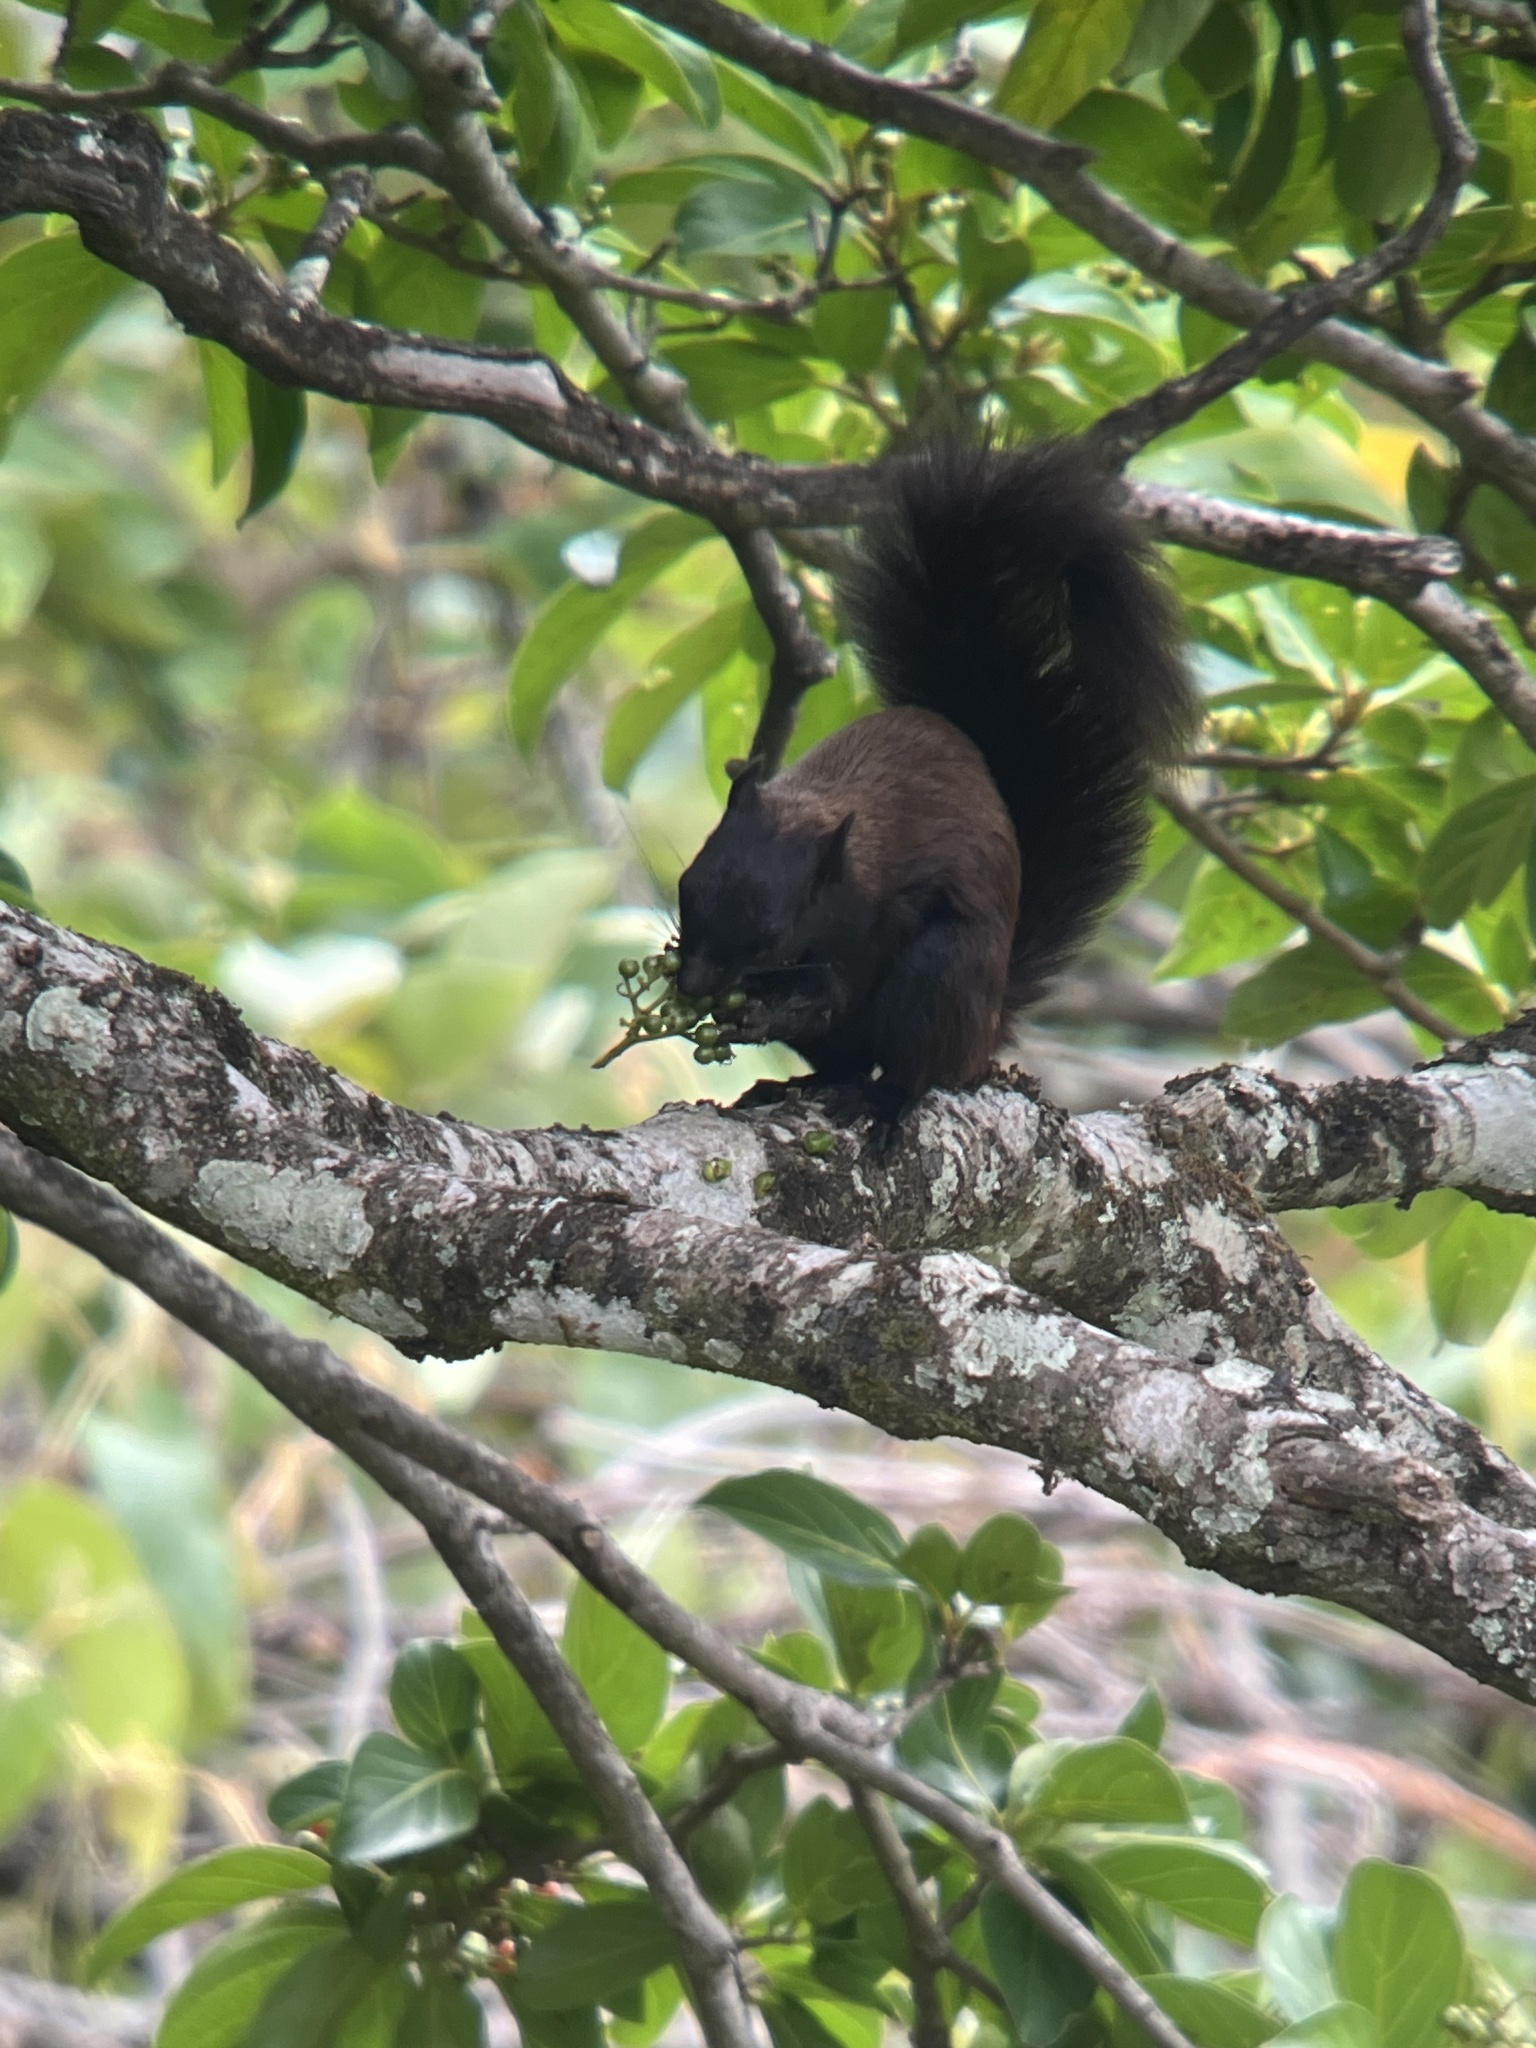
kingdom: Animalia
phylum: Chordata
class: Mammalia
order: Rodentia
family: Sciuridae
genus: Sciurus
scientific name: Sciurus variegatoides
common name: Variegated squirrel
